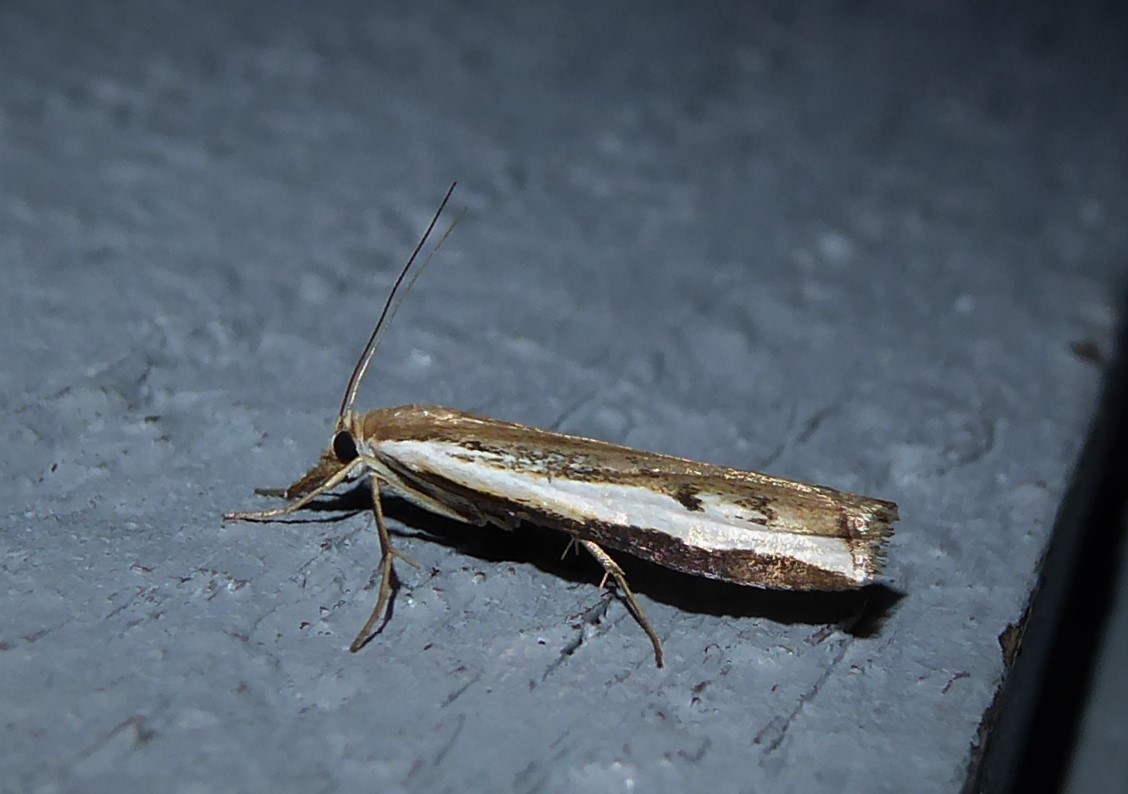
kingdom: Animalia
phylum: Arthropoda
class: Insecta
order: Lepidoptera
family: Crambidae
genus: Orocrambus
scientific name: Orocrambus flexuosellus
